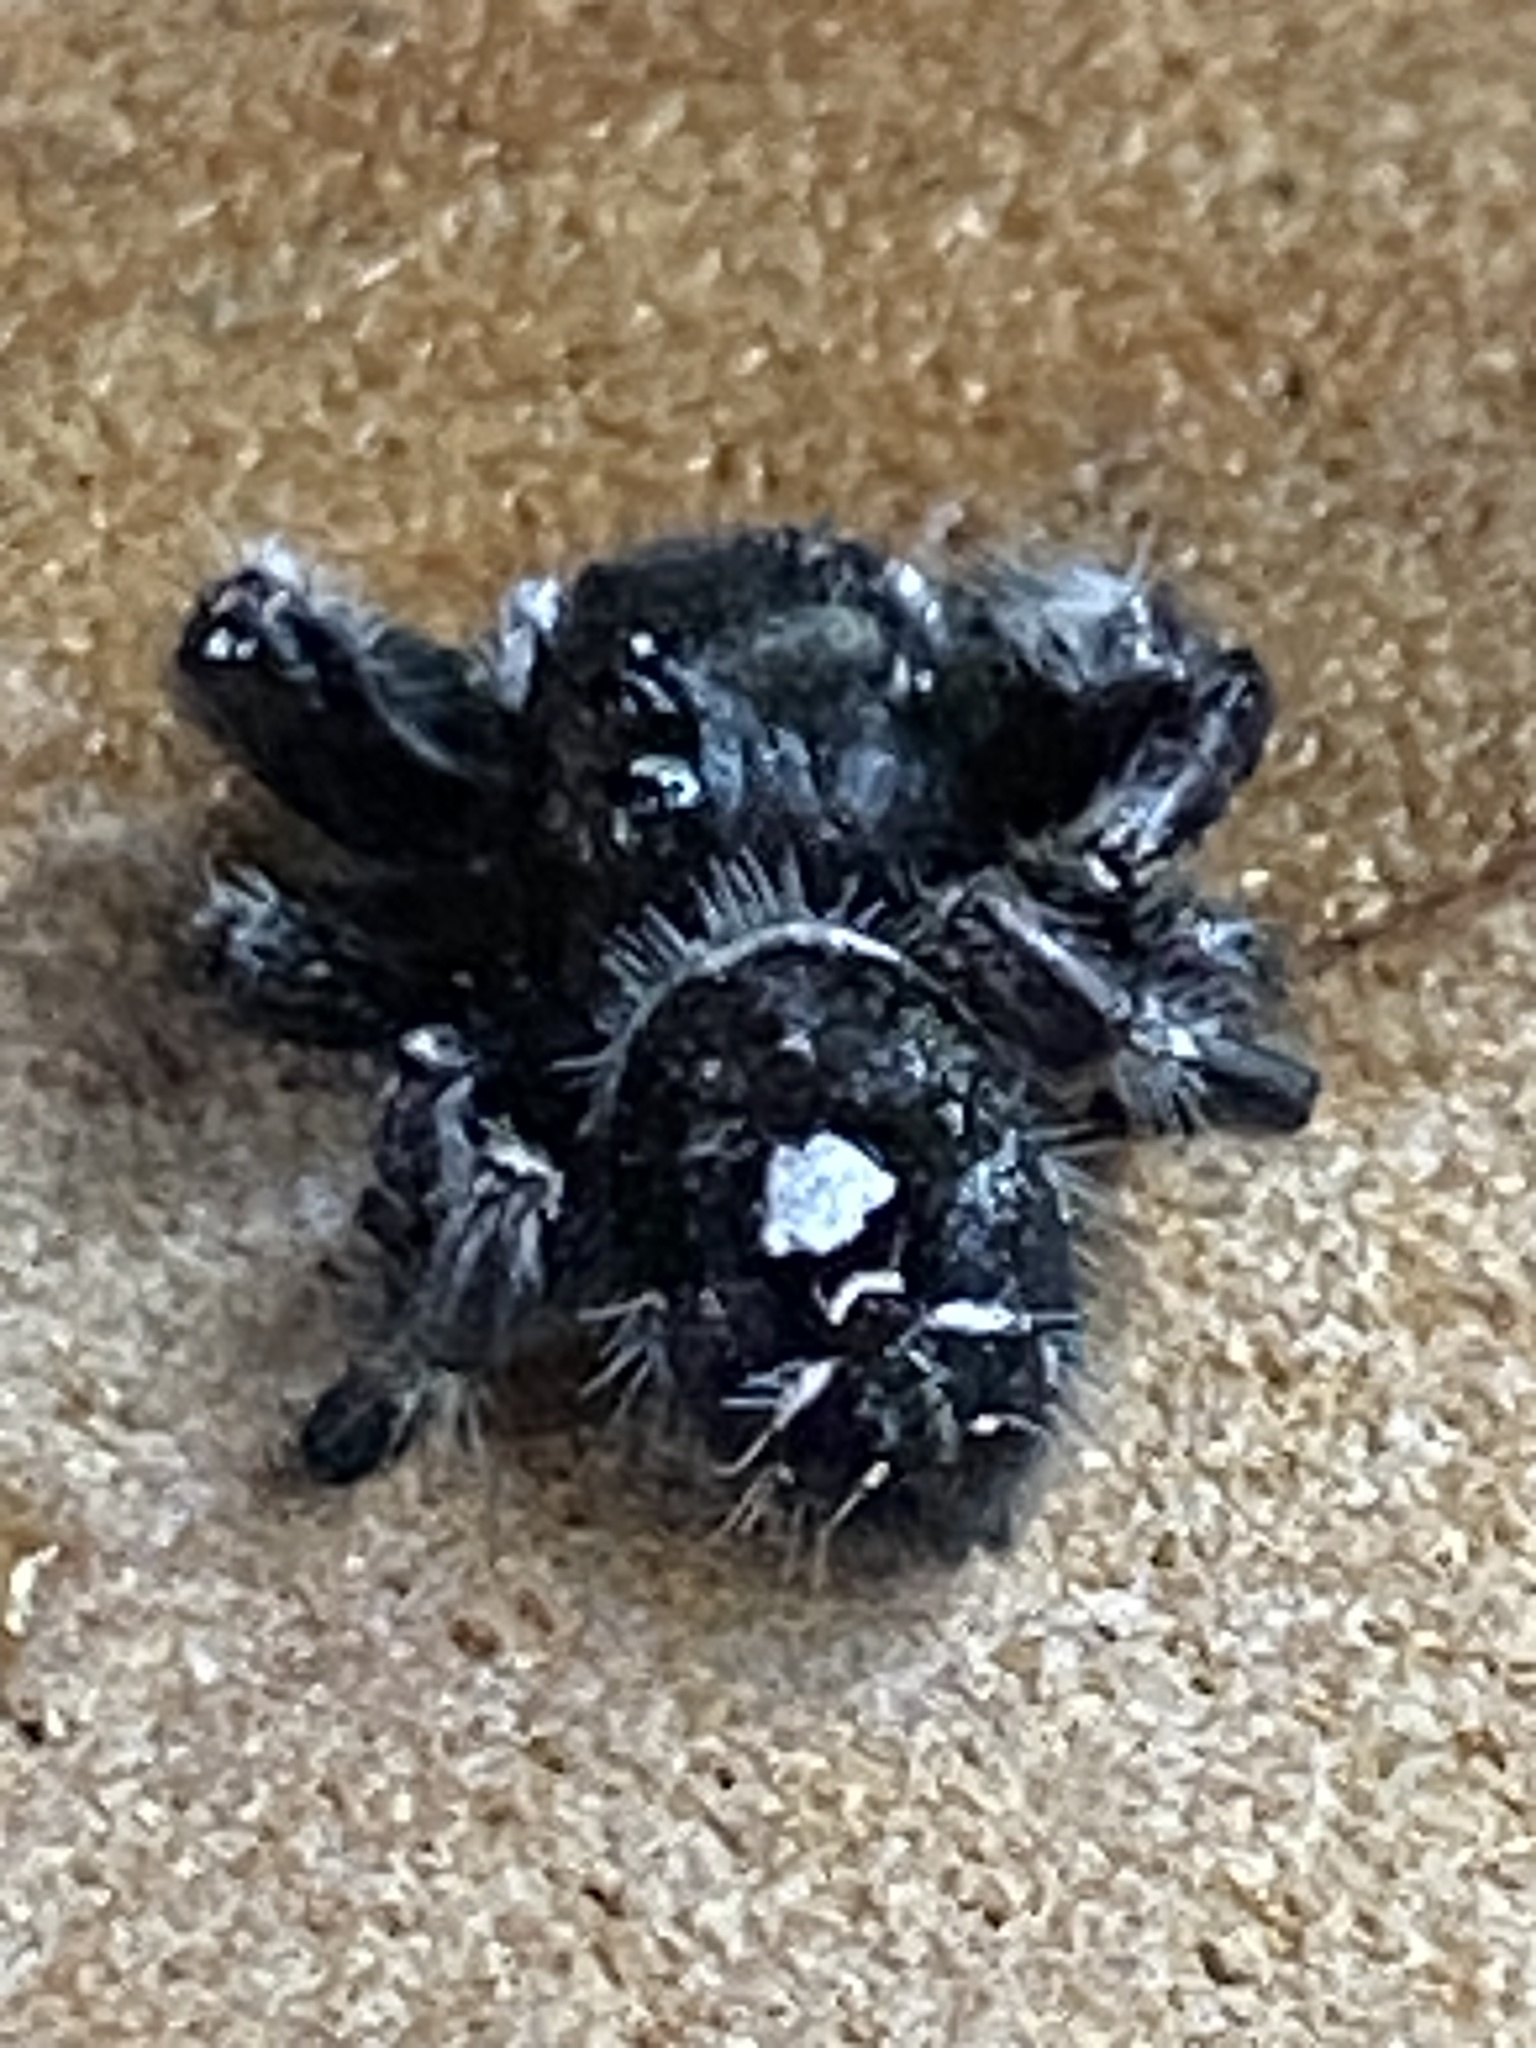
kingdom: Animalia
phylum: Arthropoda
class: Arachnida
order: Araneae
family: Salticidae
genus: Phidippus
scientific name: Phidippus audax
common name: Bold jumper
